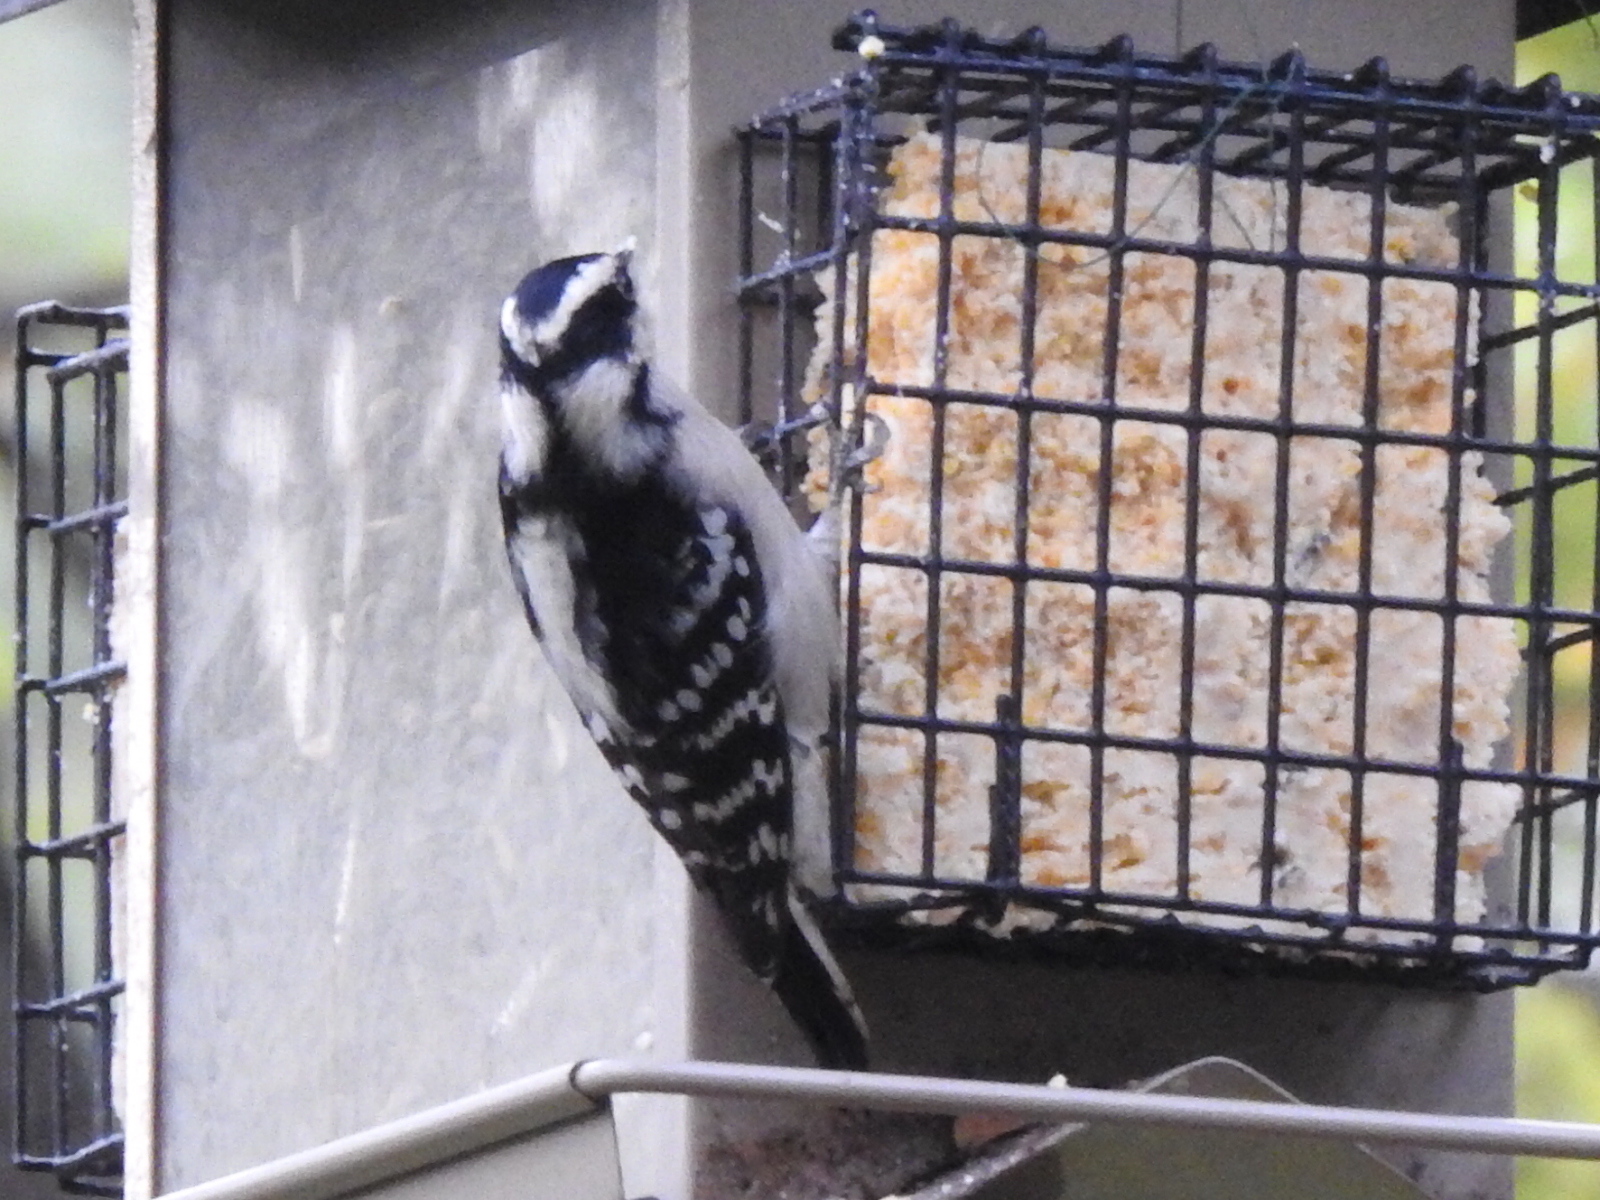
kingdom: Animalia
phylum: Chordata
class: Aves
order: Piciformes
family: Picidae
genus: Dryobates
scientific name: Dryobates pubescens
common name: Downy woodpecker
